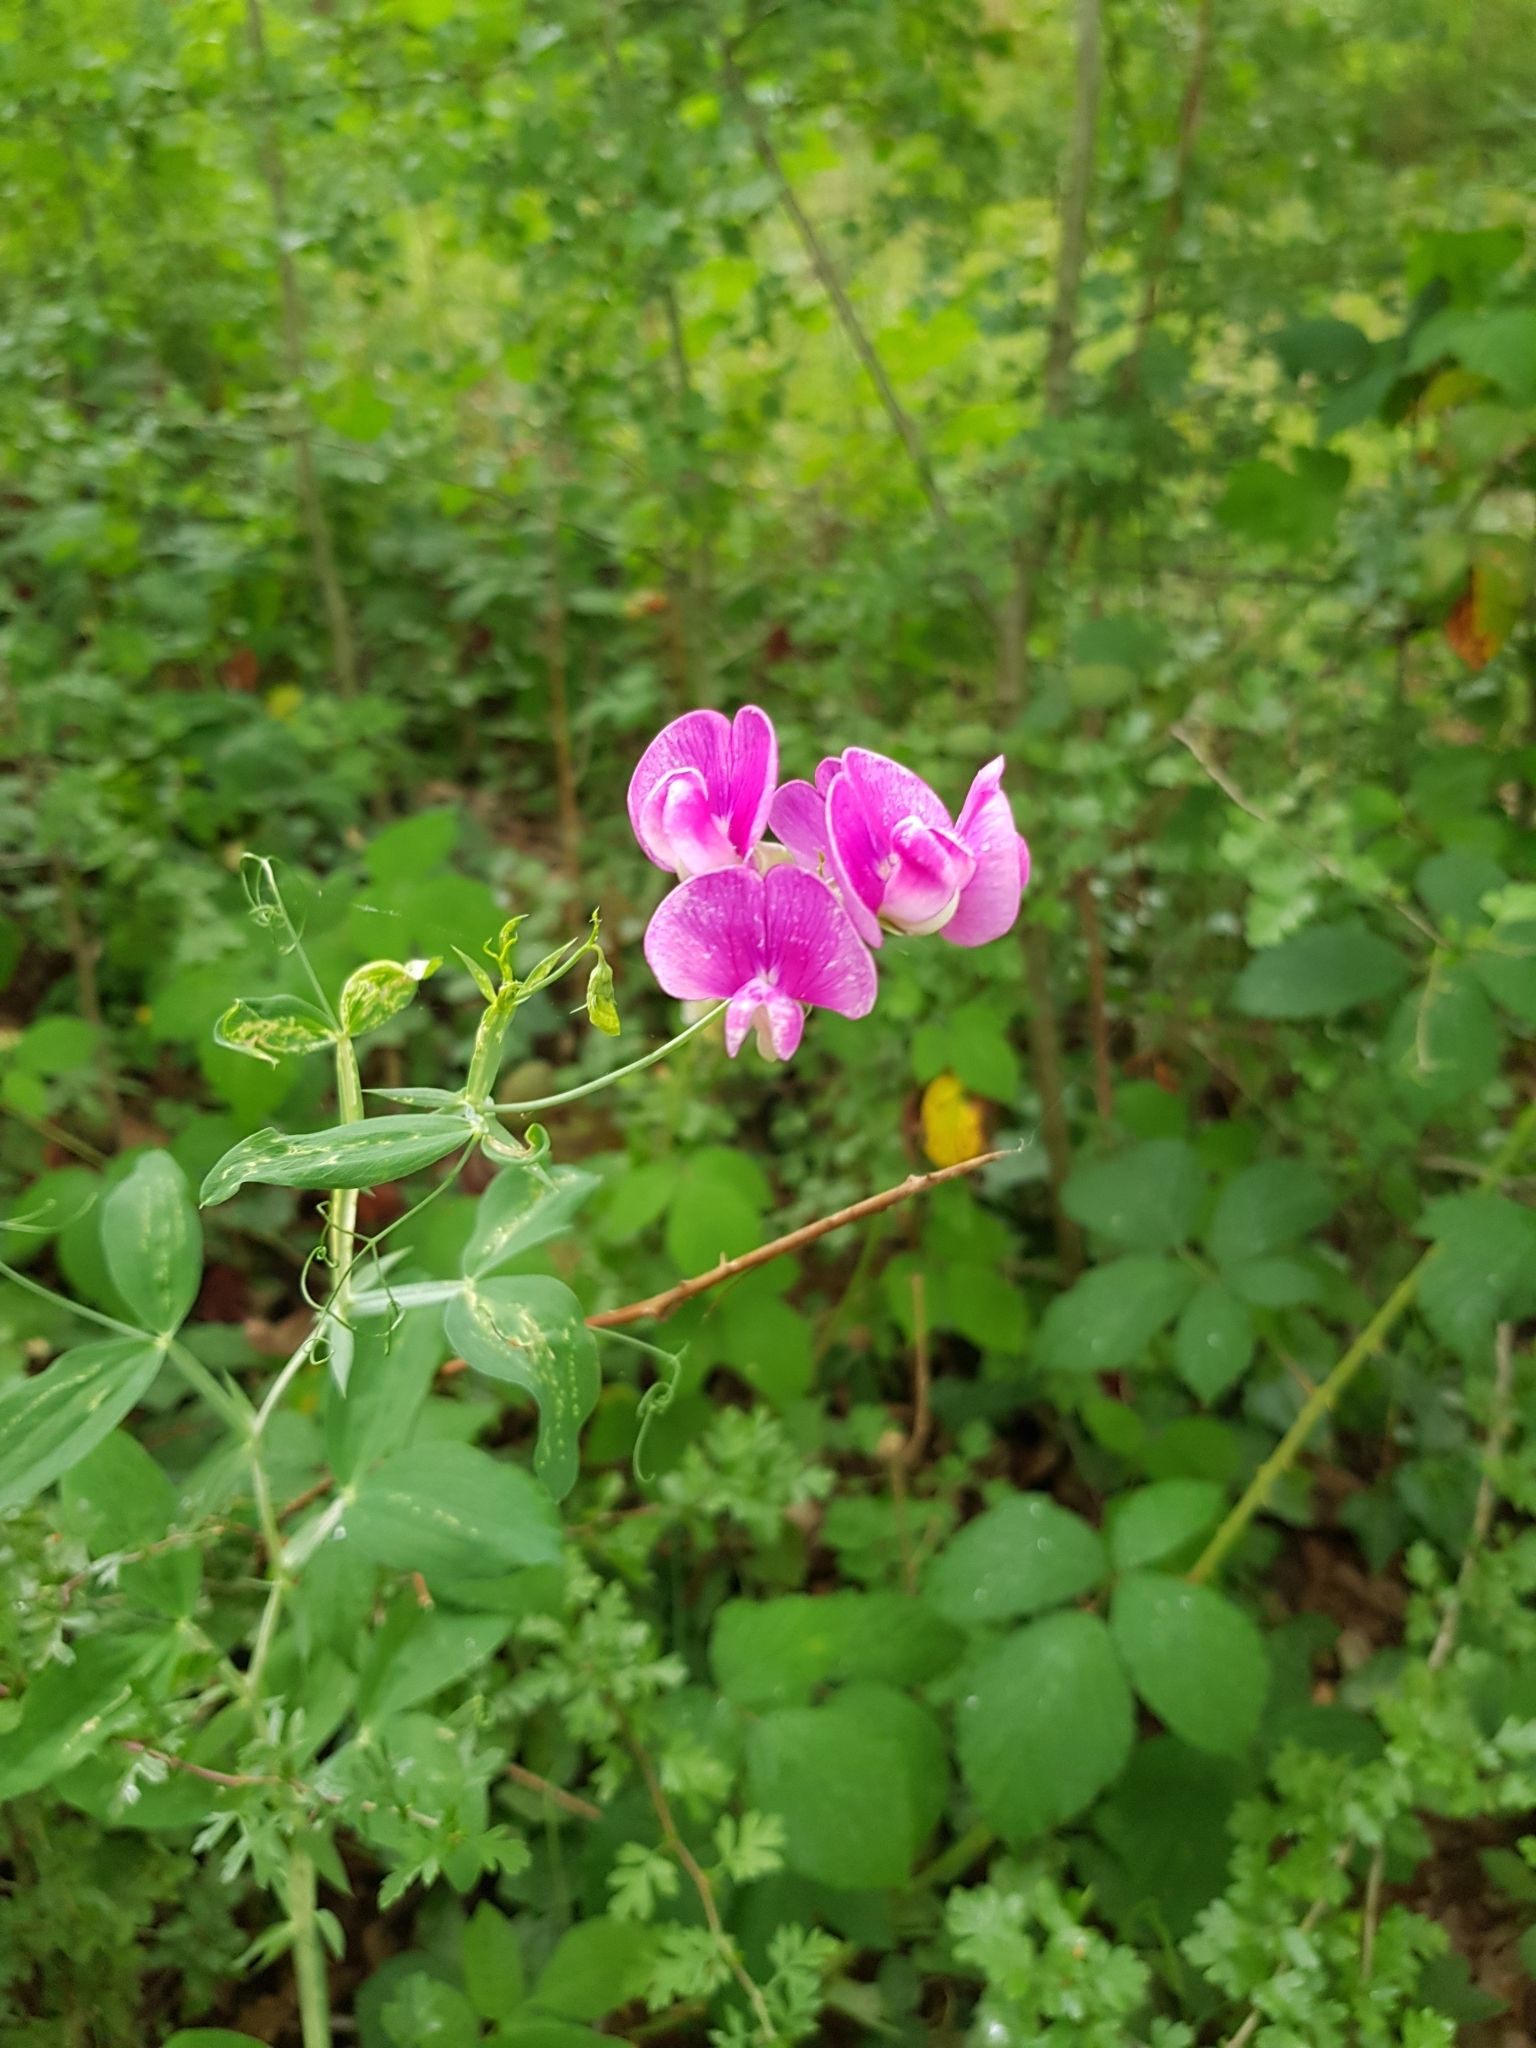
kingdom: Plantae
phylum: Tracheophyta
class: Magnoliopsida
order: Fabales
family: Fabaceae
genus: Lathyrus
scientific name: Lathyrus latifolius
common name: Perennial pea
